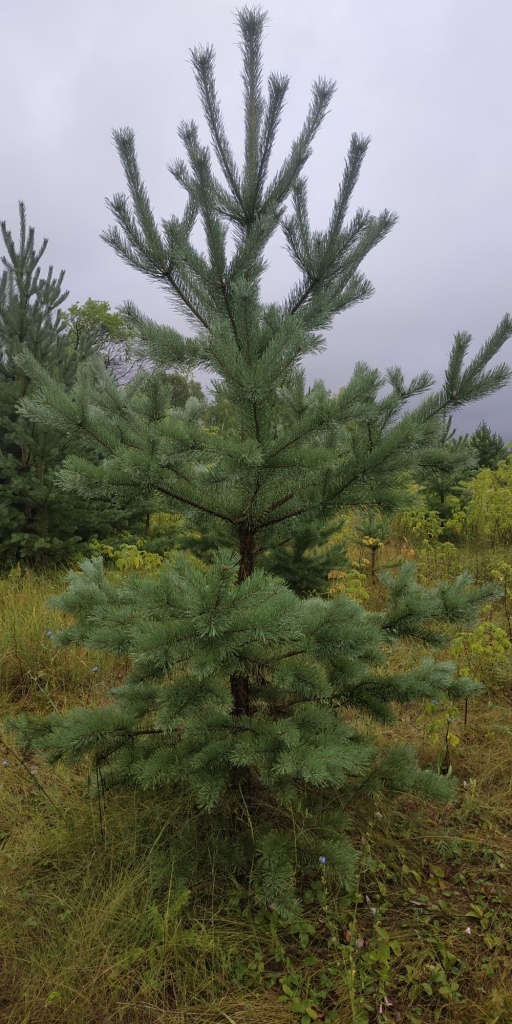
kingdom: Plantae
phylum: Tracheophyta
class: Pinopsida
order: Pinales
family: Pinaceae
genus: Pinus
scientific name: Pinus sylvestris
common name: Scots pine
